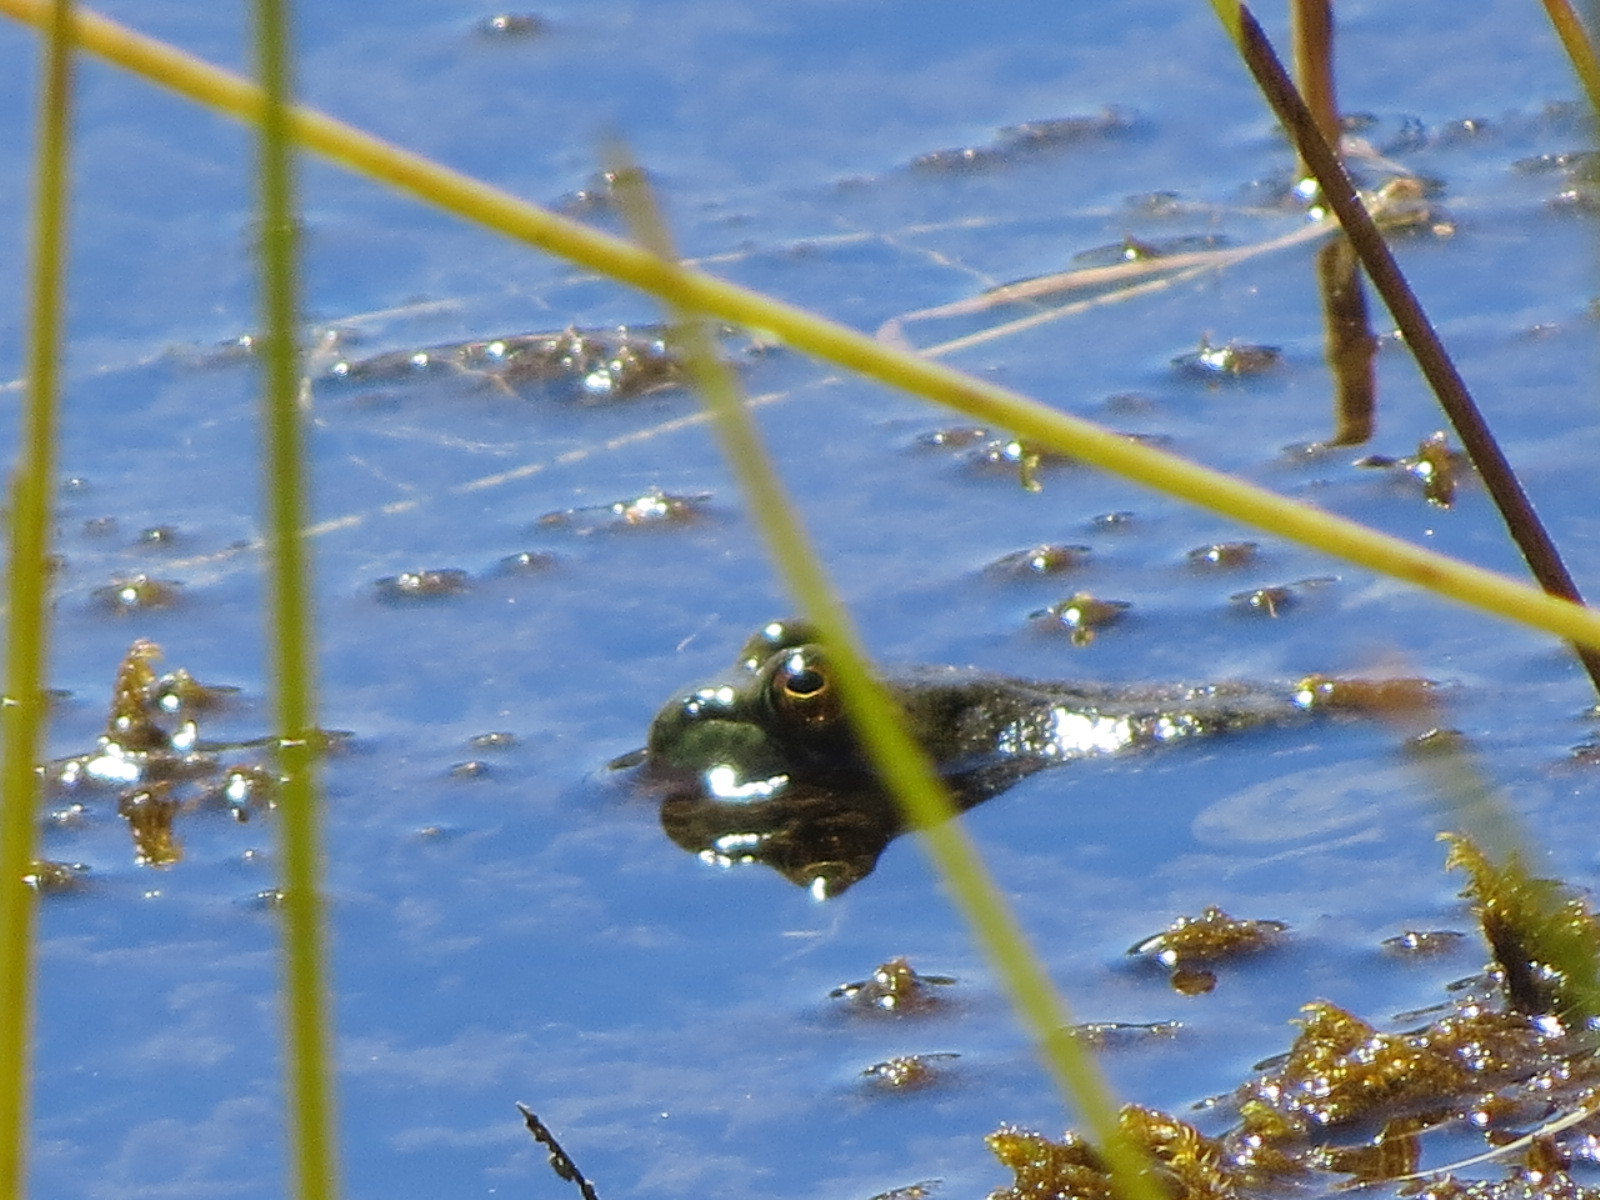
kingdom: Animalia
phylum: Chordata
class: Amphibia
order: Anura
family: Ranidae
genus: Lithobates
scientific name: Lithobates catesbeianus
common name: American bullfrog
